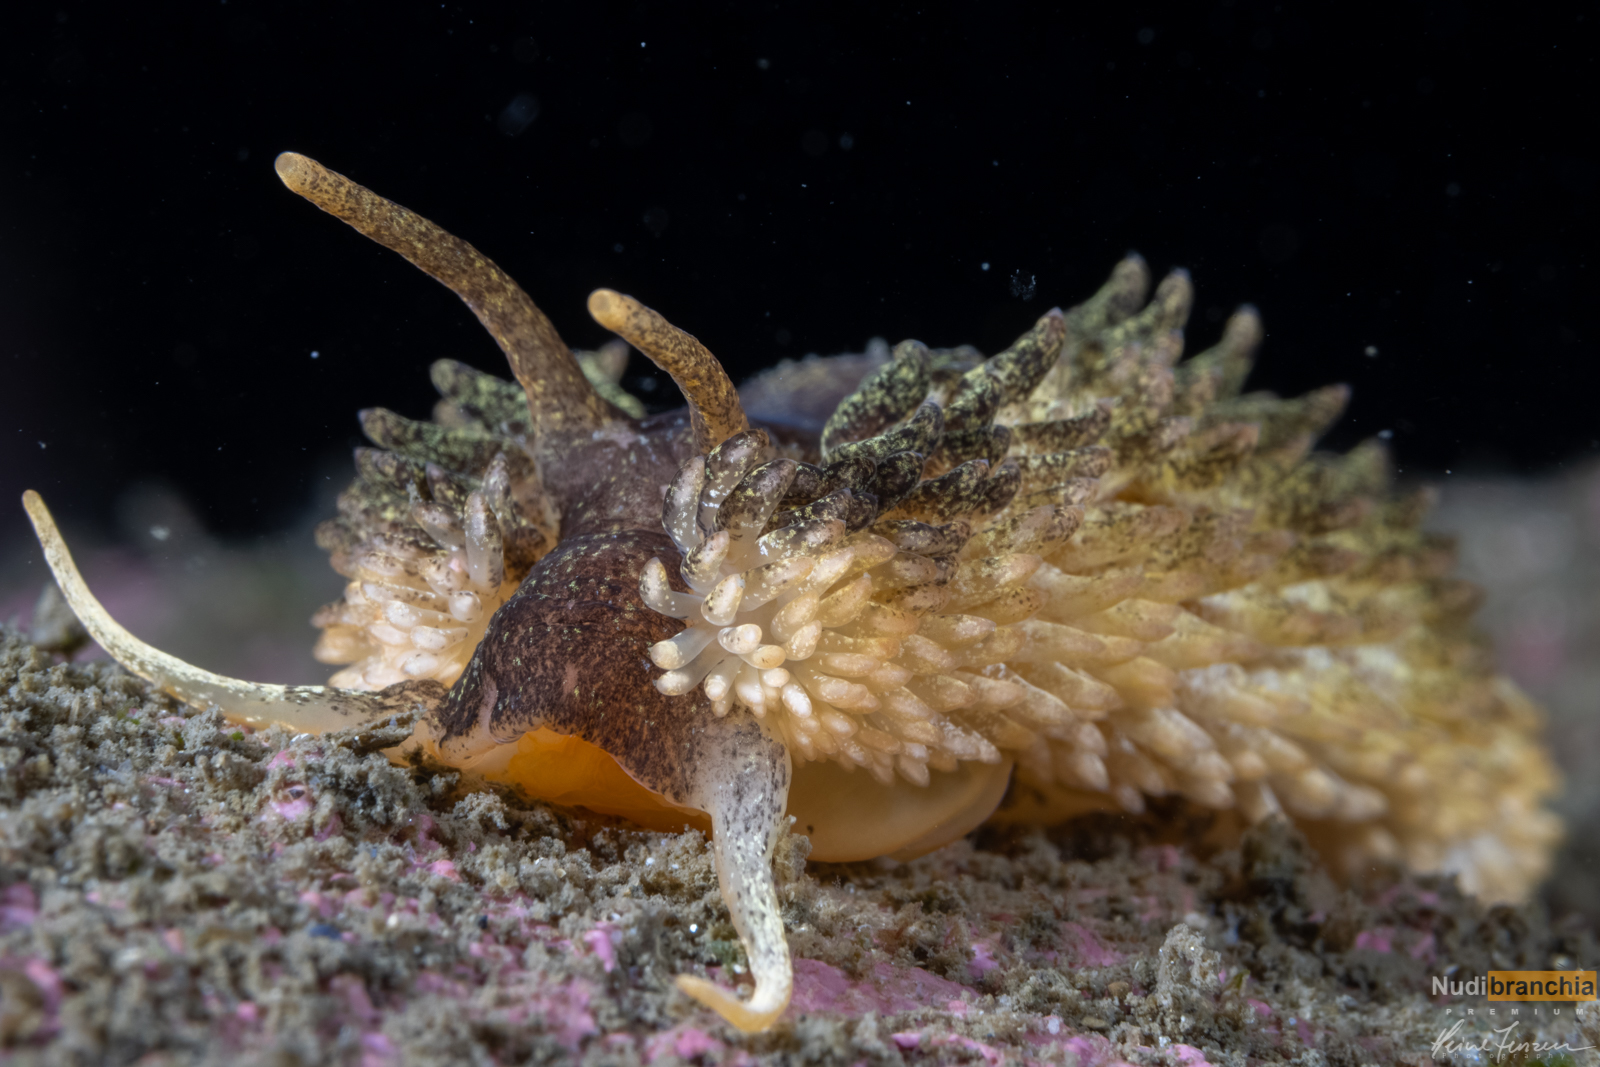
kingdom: Animalia
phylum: Mollusca
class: Gastropoda
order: Nudibranchia
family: Aeolidiidae
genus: Aeolidia
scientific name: Aeolidia papillosa
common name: Common grey sea slug
